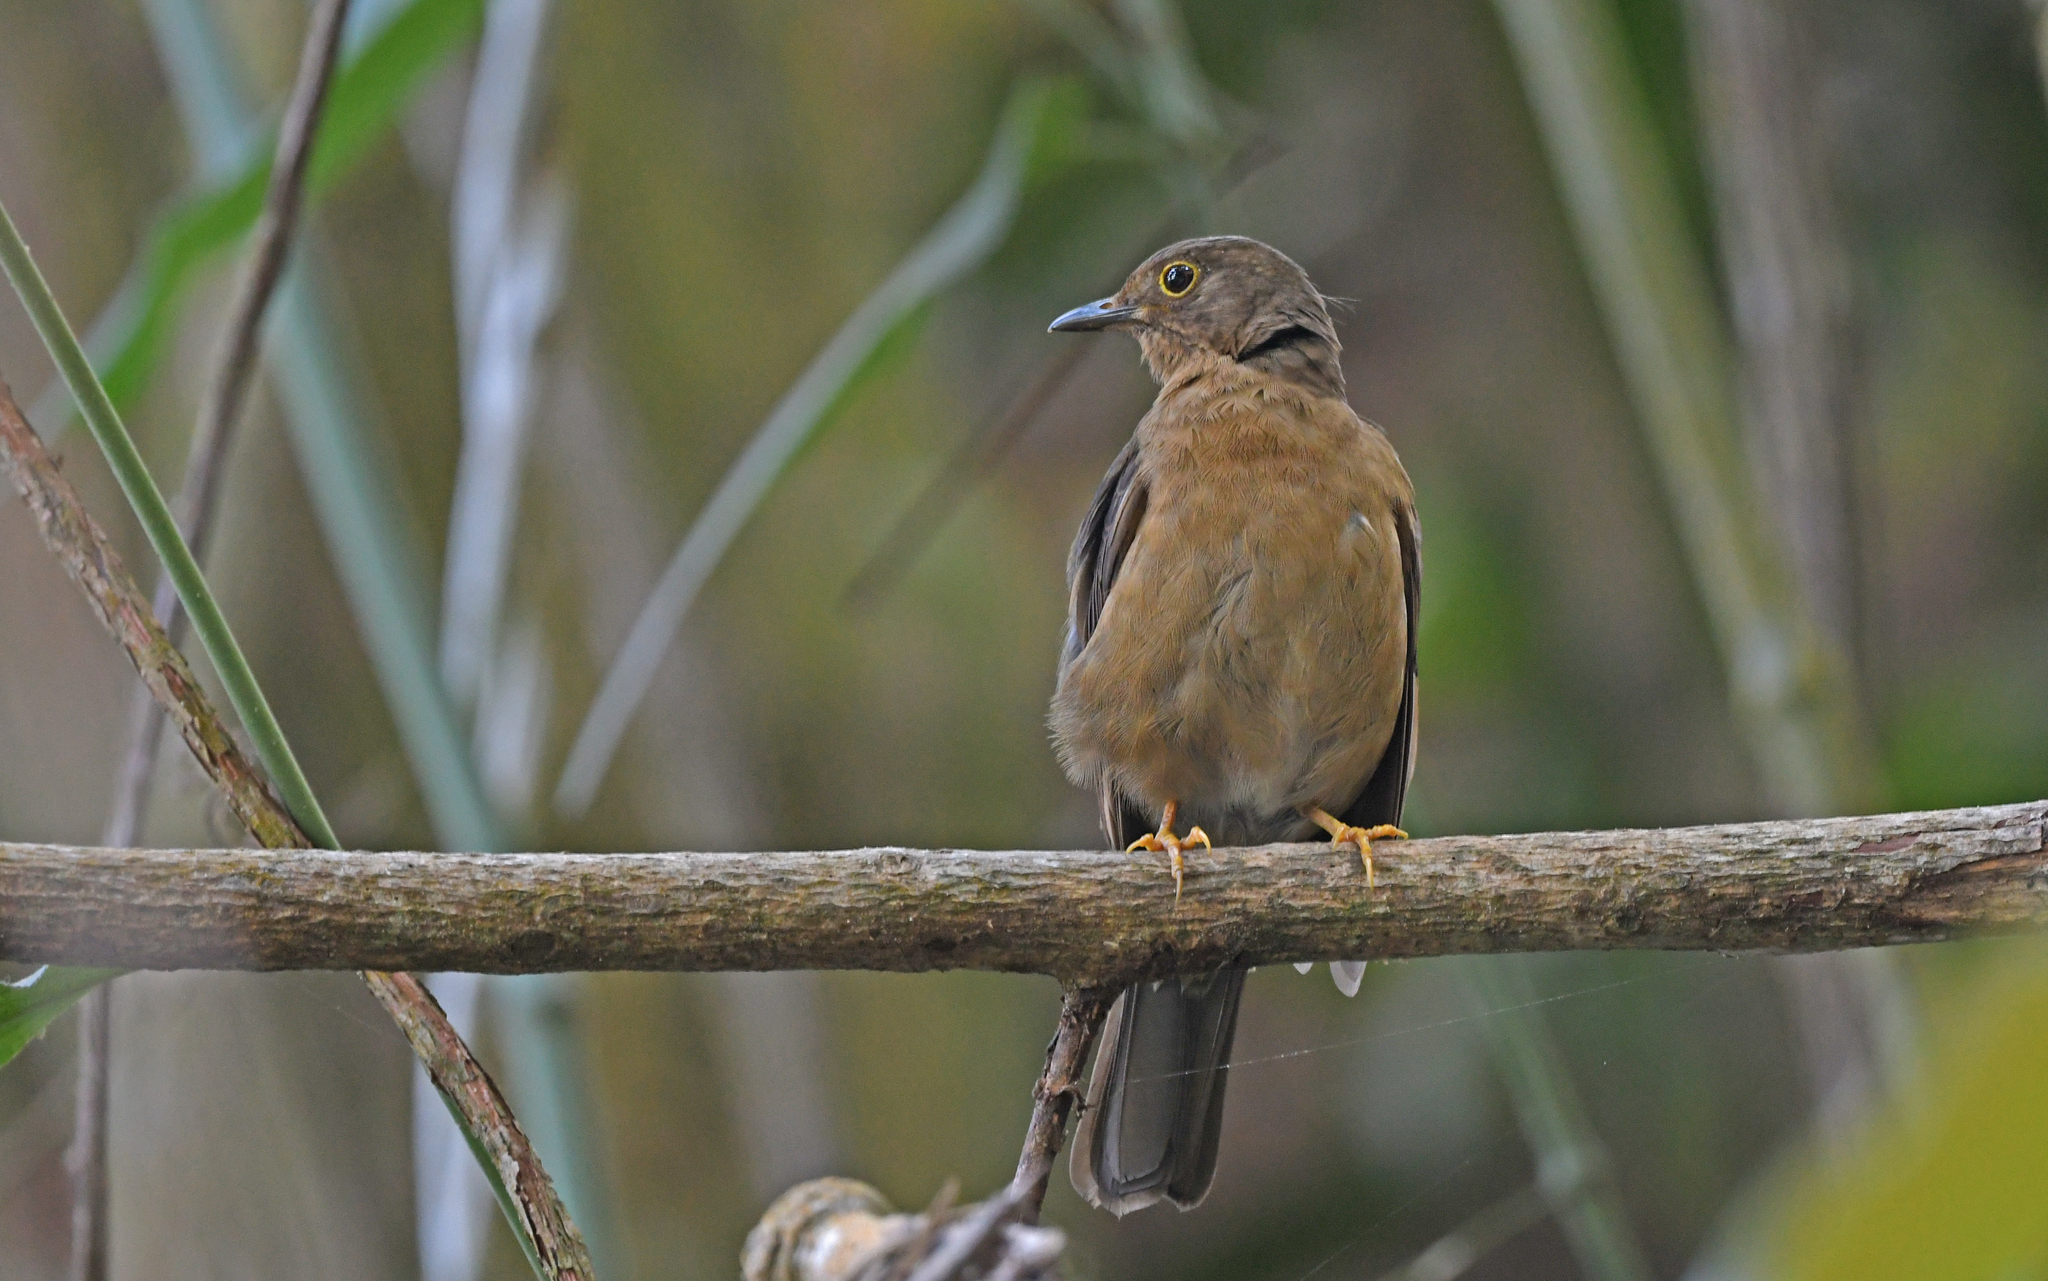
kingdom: Animalia
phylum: Chordata
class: Aves
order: Passeriformes
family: Turdidae
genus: Turdus
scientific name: Turdus flavipes
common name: Yellow-legged thrush
